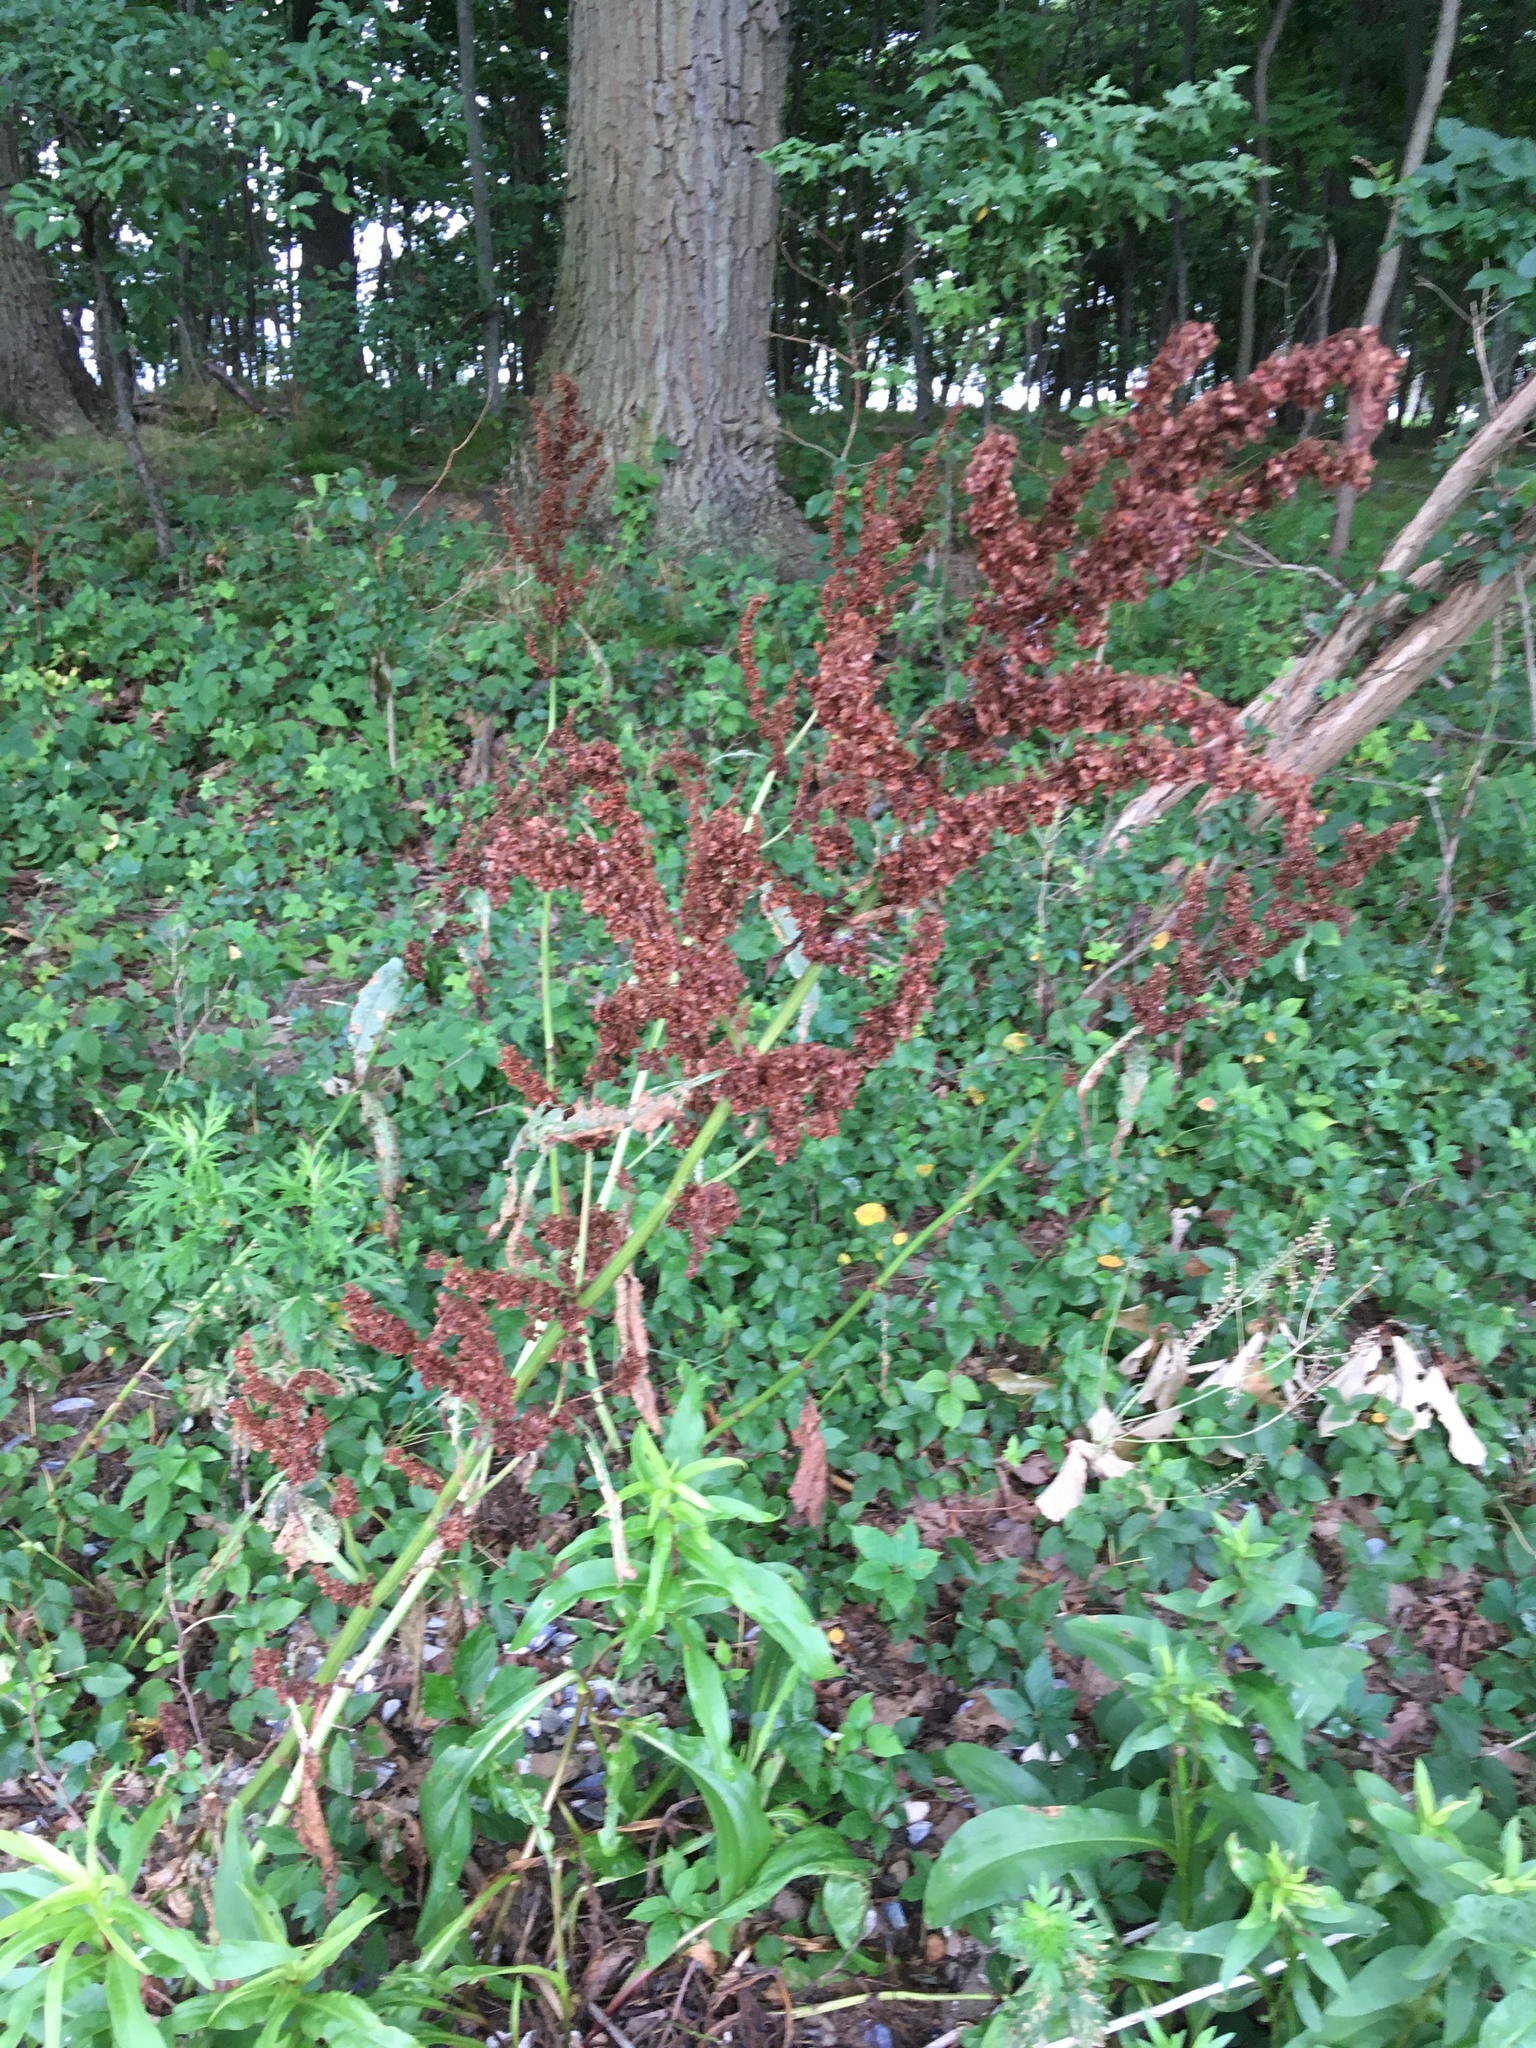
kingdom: Plantae
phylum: Tracheophyta
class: Magnoliopsida
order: Caryophyllales
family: Polygonaceae
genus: Rumex
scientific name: Rumex cristatus
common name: Greek dock
